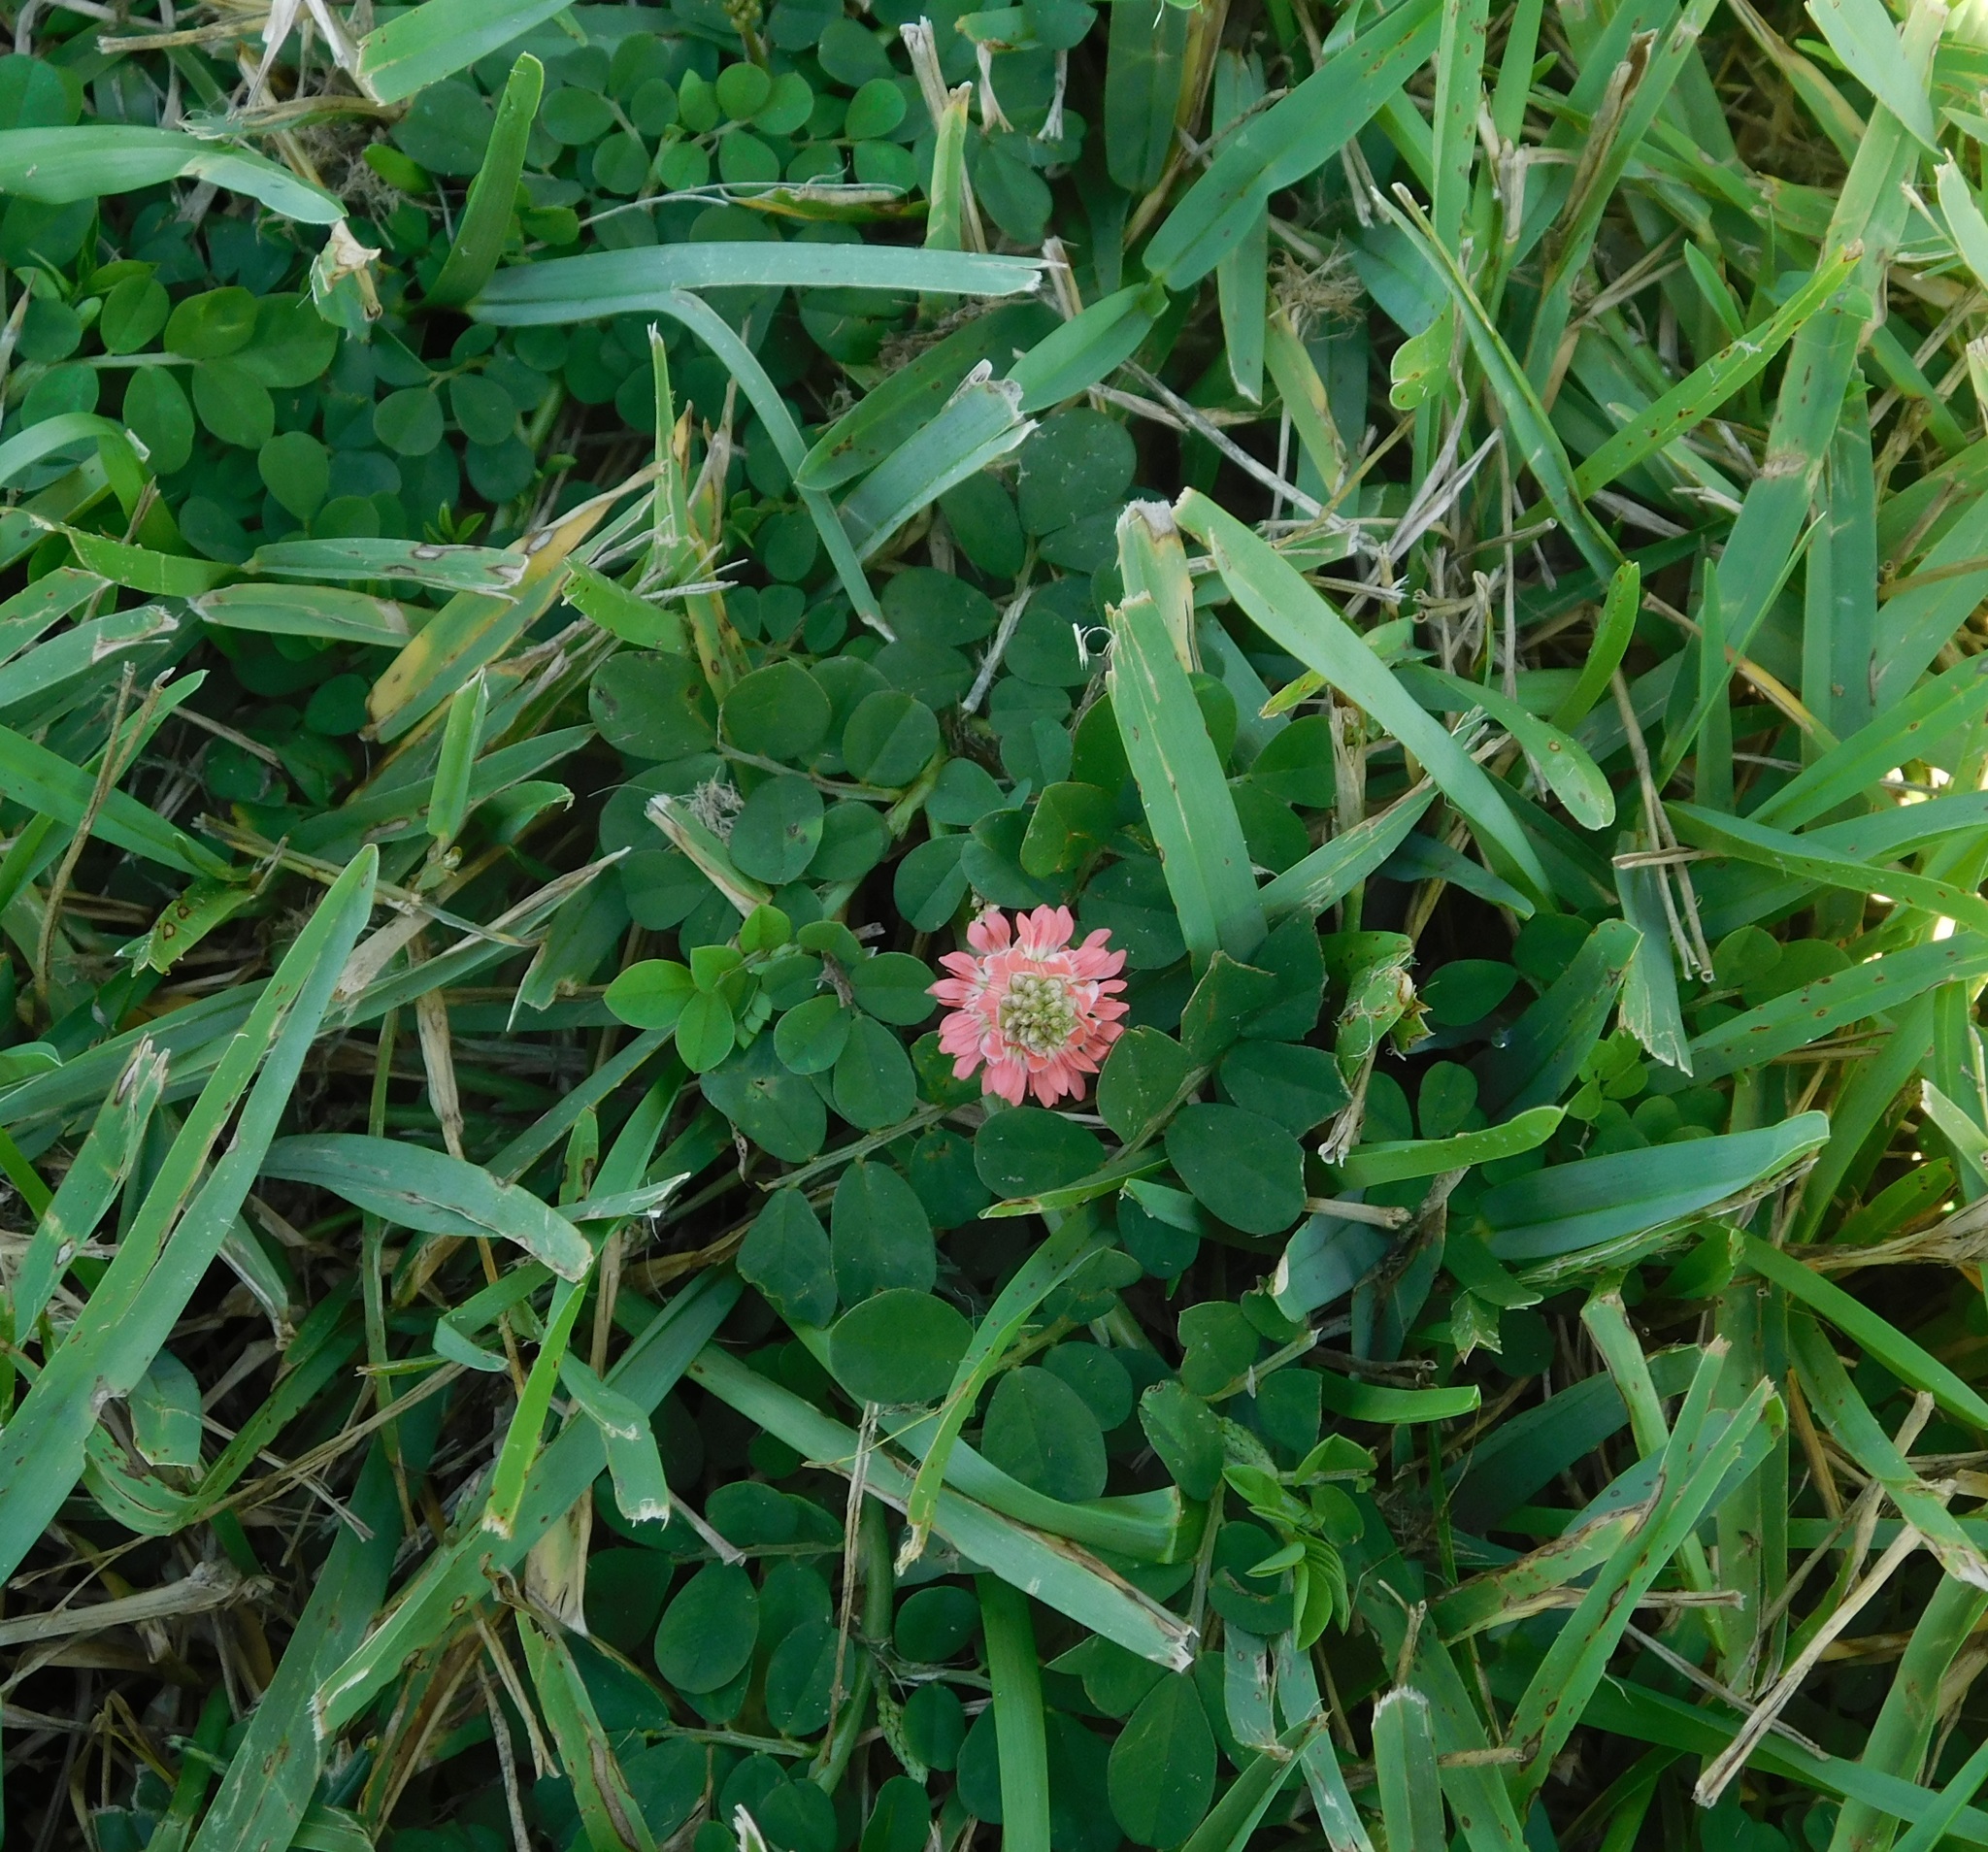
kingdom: Plantae
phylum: Tracheophyta
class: Magnoliopsida
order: Fabales
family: Fabaceae
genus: Indigofera
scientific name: Indigofera spicata
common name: Creeping indigo
